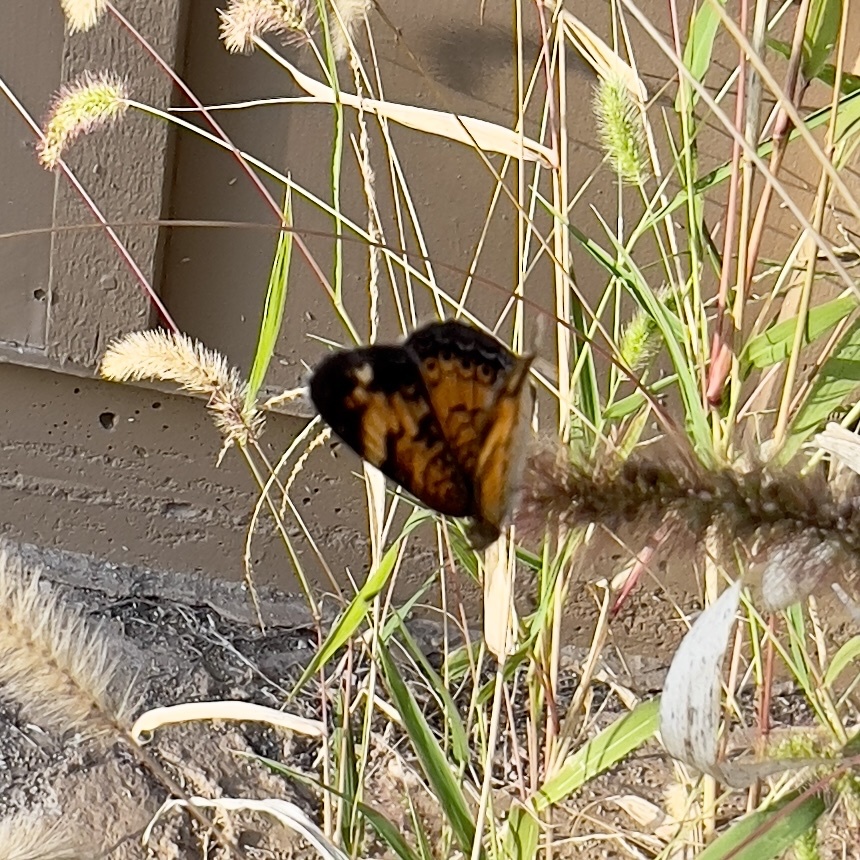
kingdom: Animalia
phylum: Arthropoda
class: Insecta
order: Lepidoptera
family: Nymphalidae
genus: Phyciodes
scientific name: Phyciodes tharos
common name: Pearl crescent
